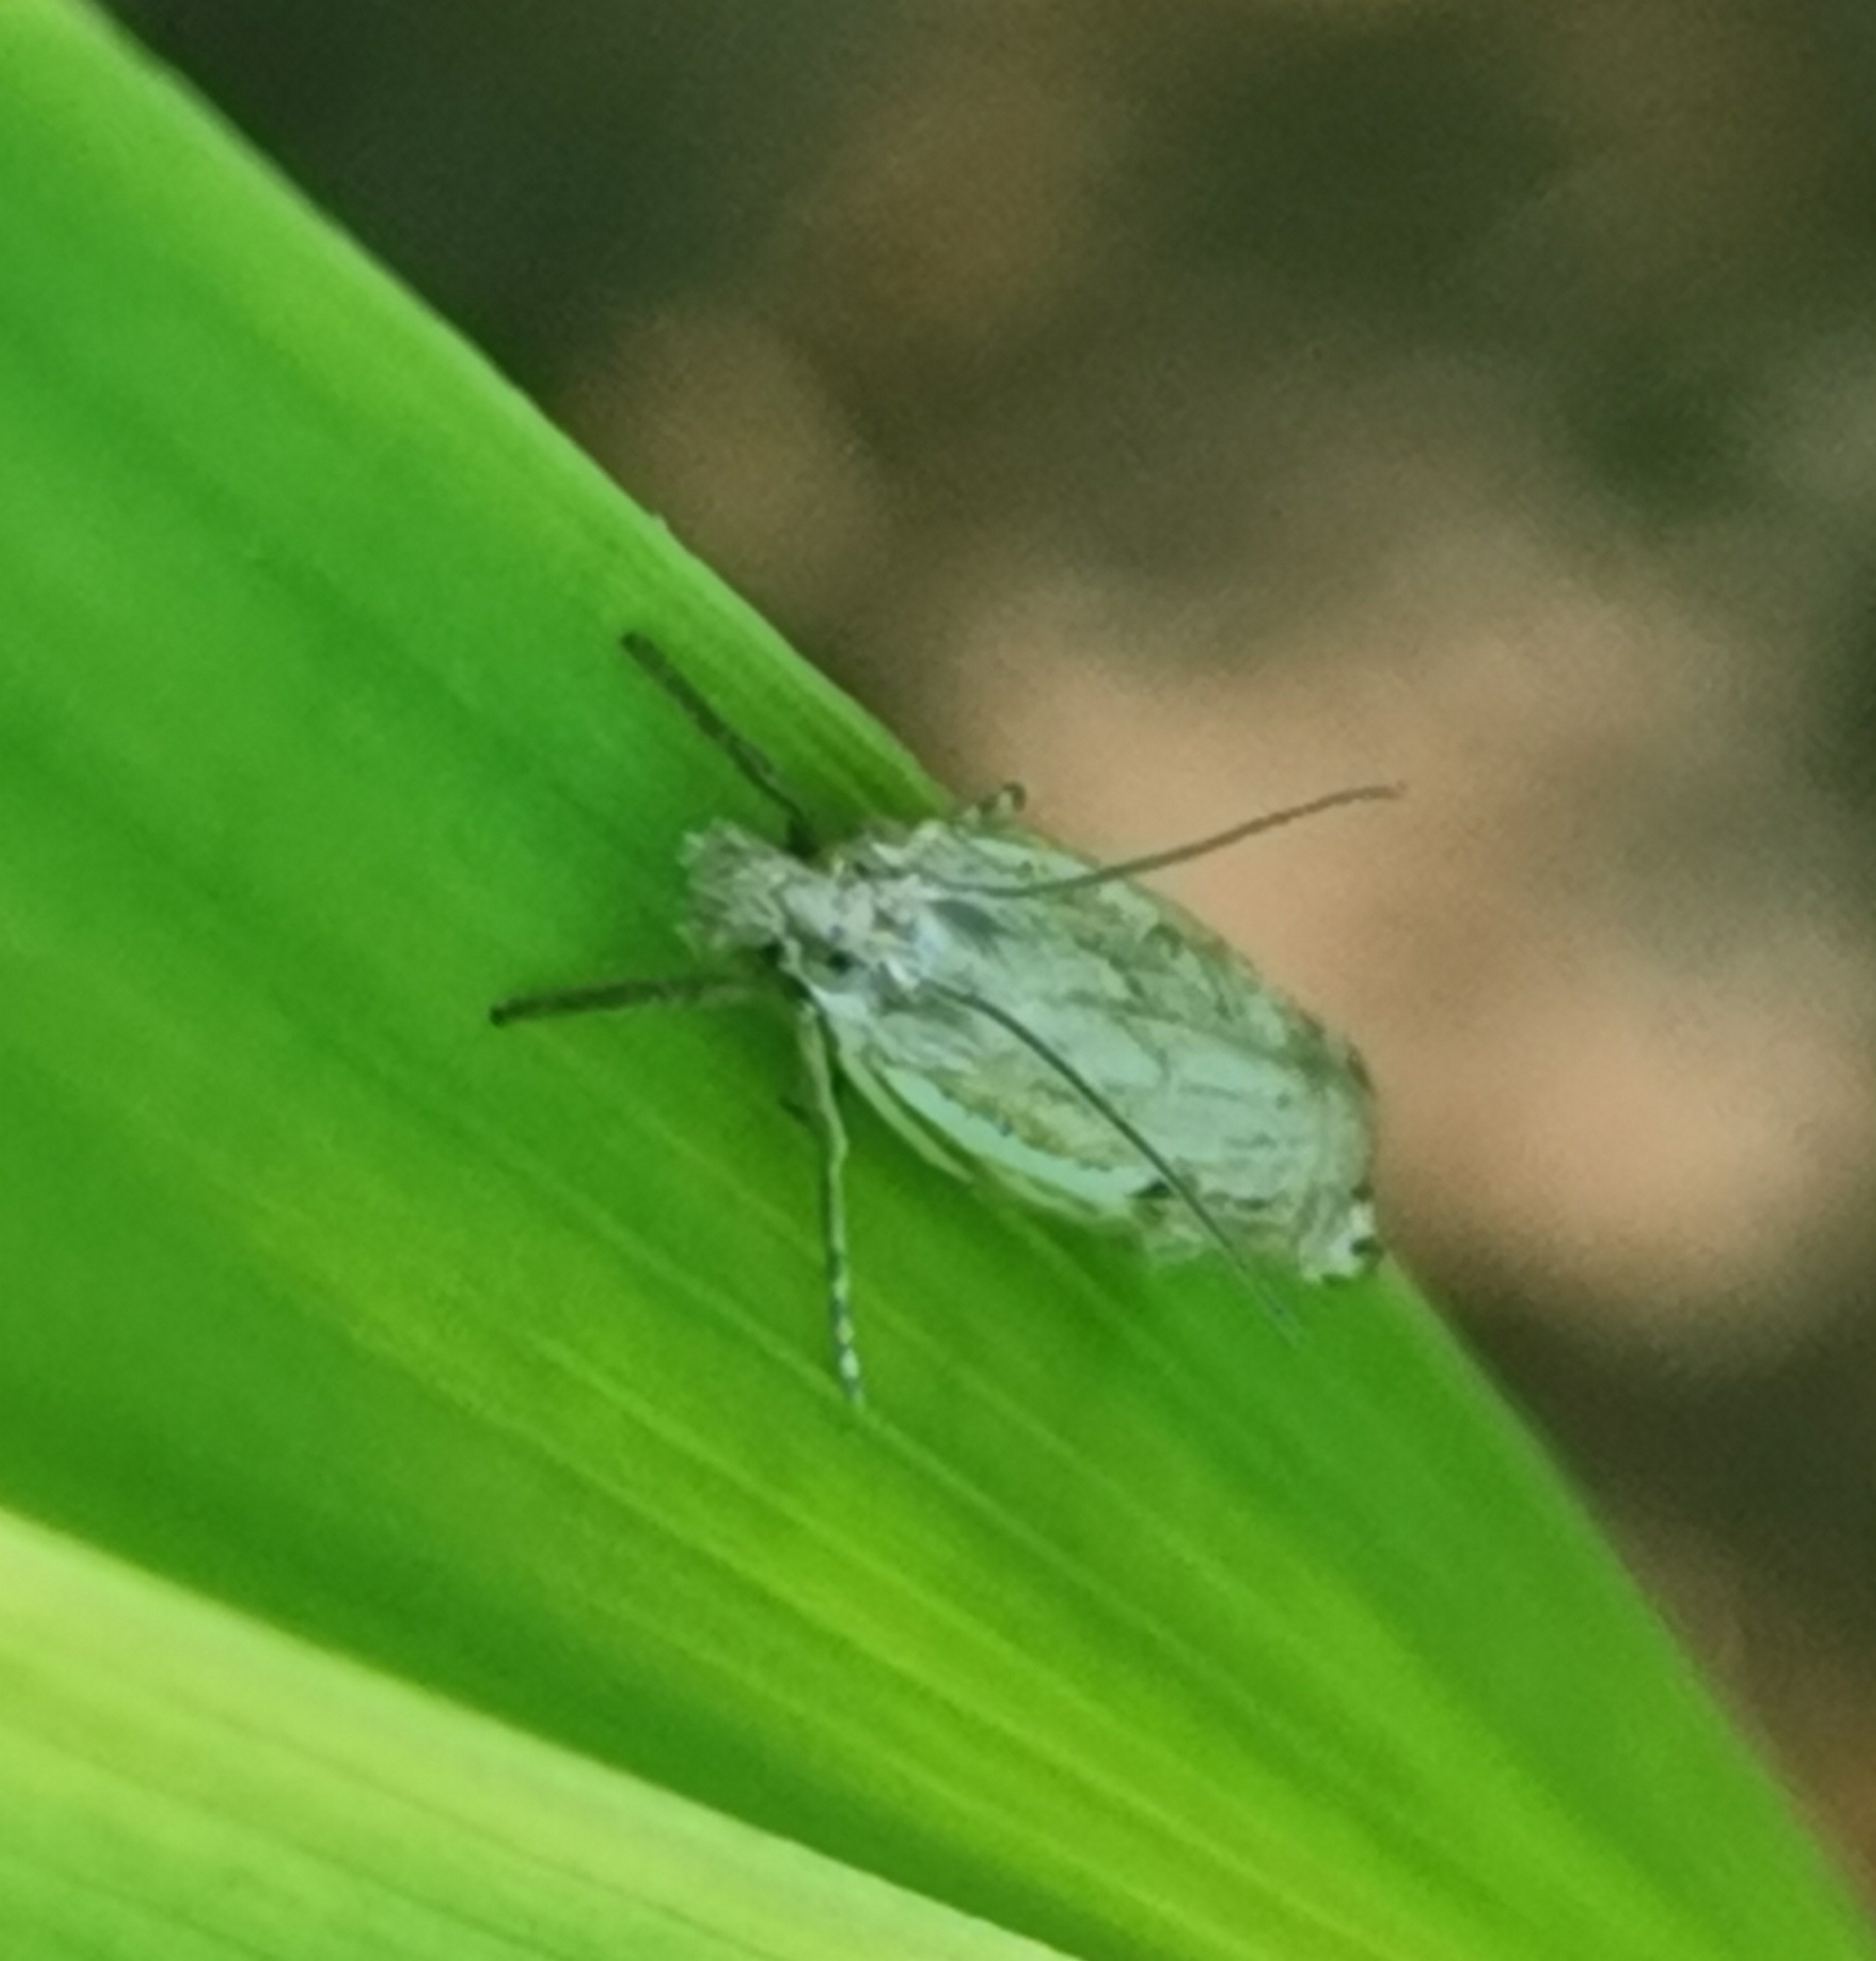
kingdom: Animalia
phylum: Arthropoda
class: Insecta
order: Lepidoptera
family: Crambidae
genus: Crambus
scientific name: Crambus nemorella
